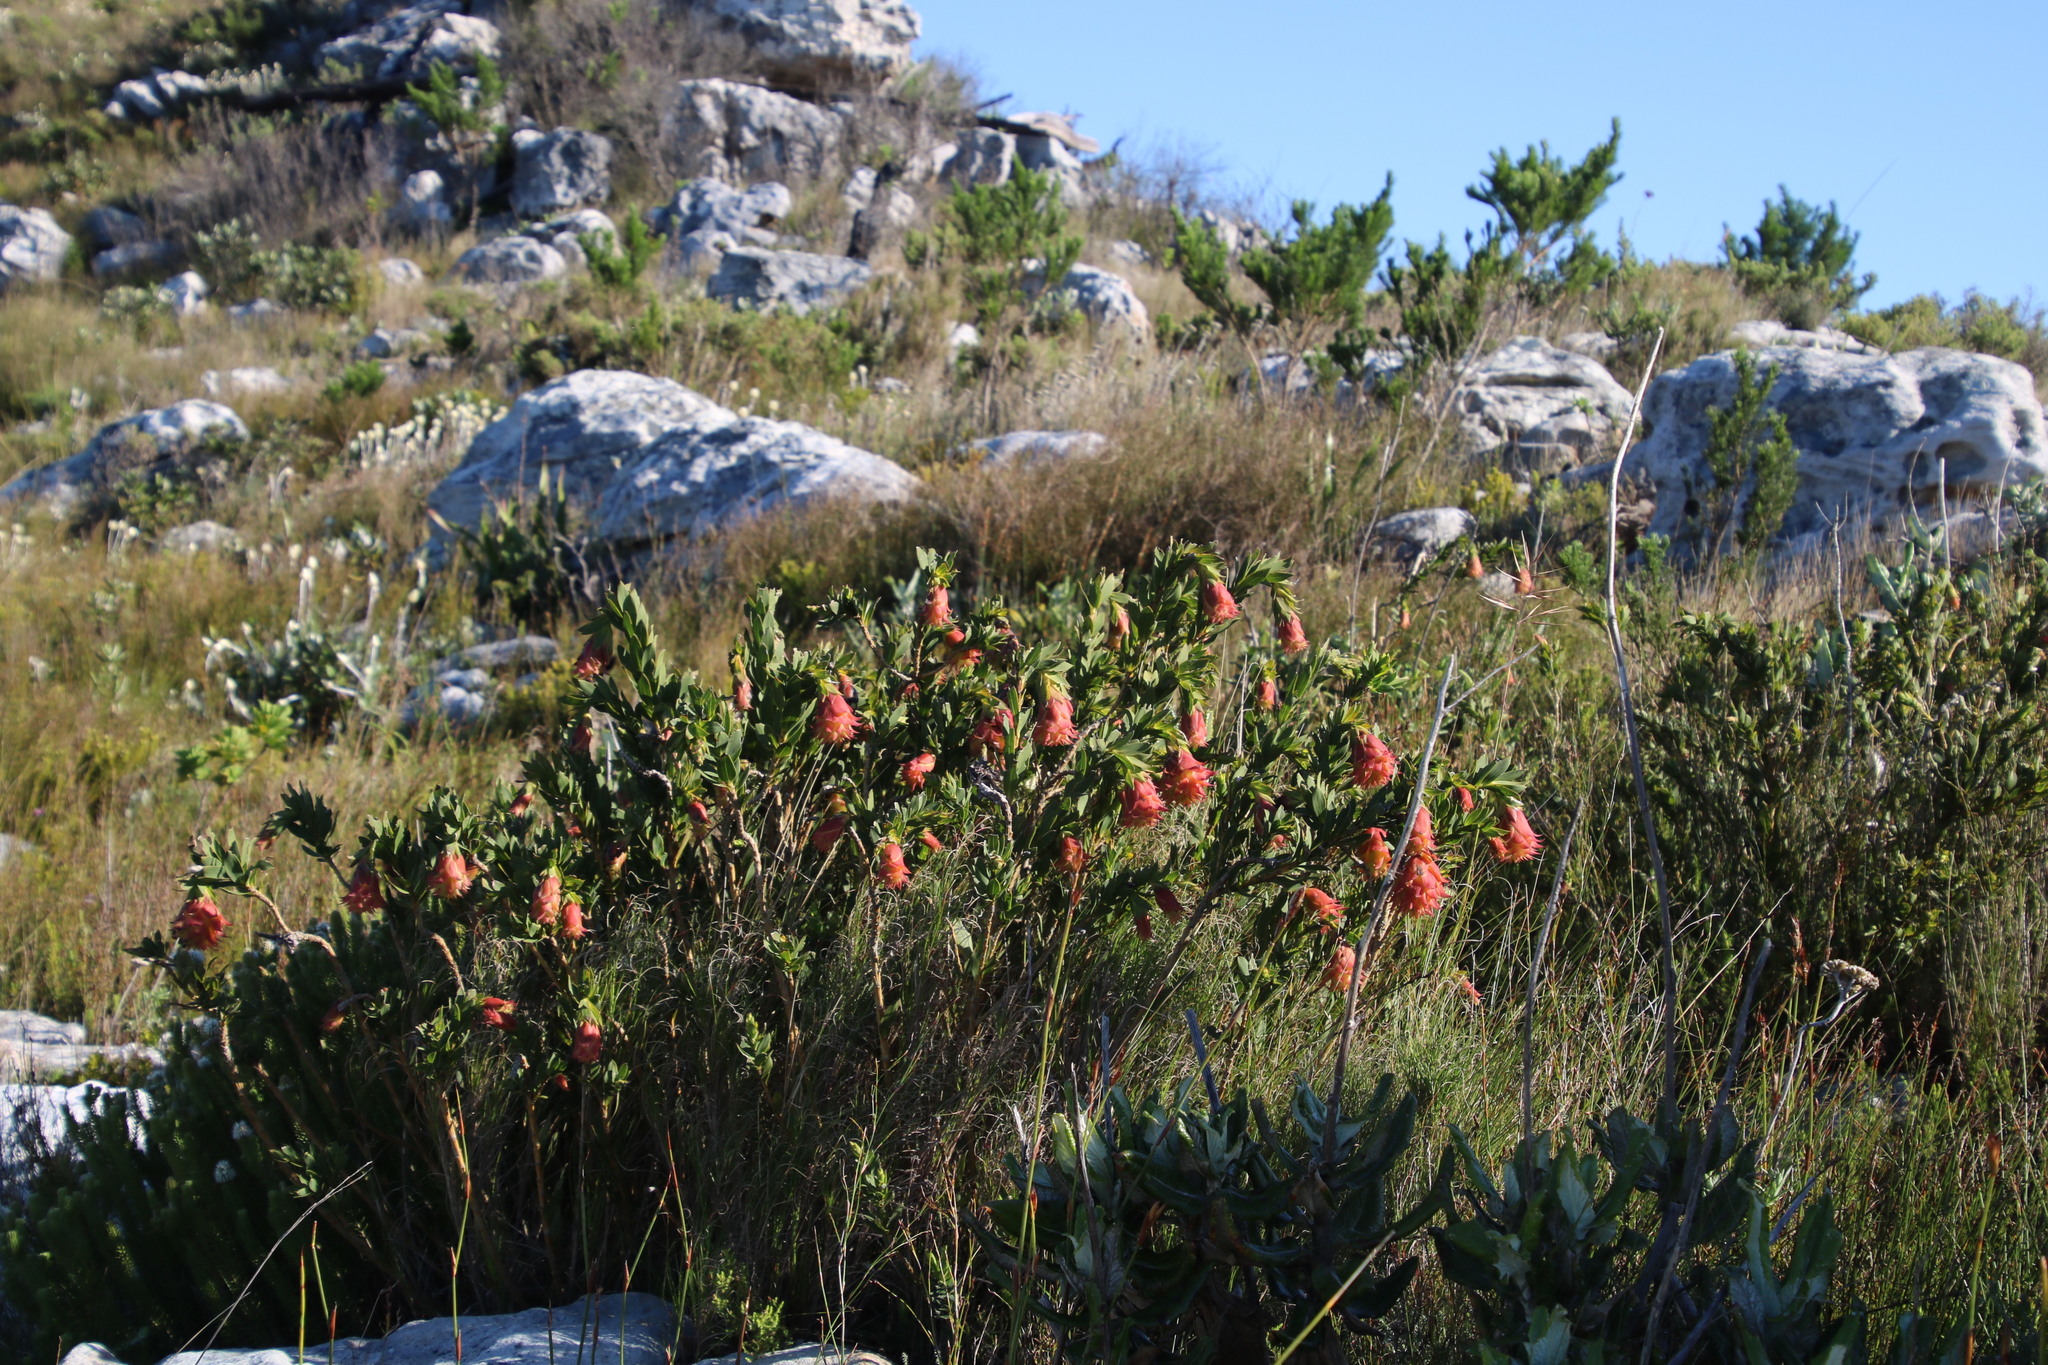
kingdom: Plantae
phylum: Tracheophyta
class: Magnoliopsida
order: Fabales
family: Fabaceae
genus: Liparia
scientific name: Liparia splendens
